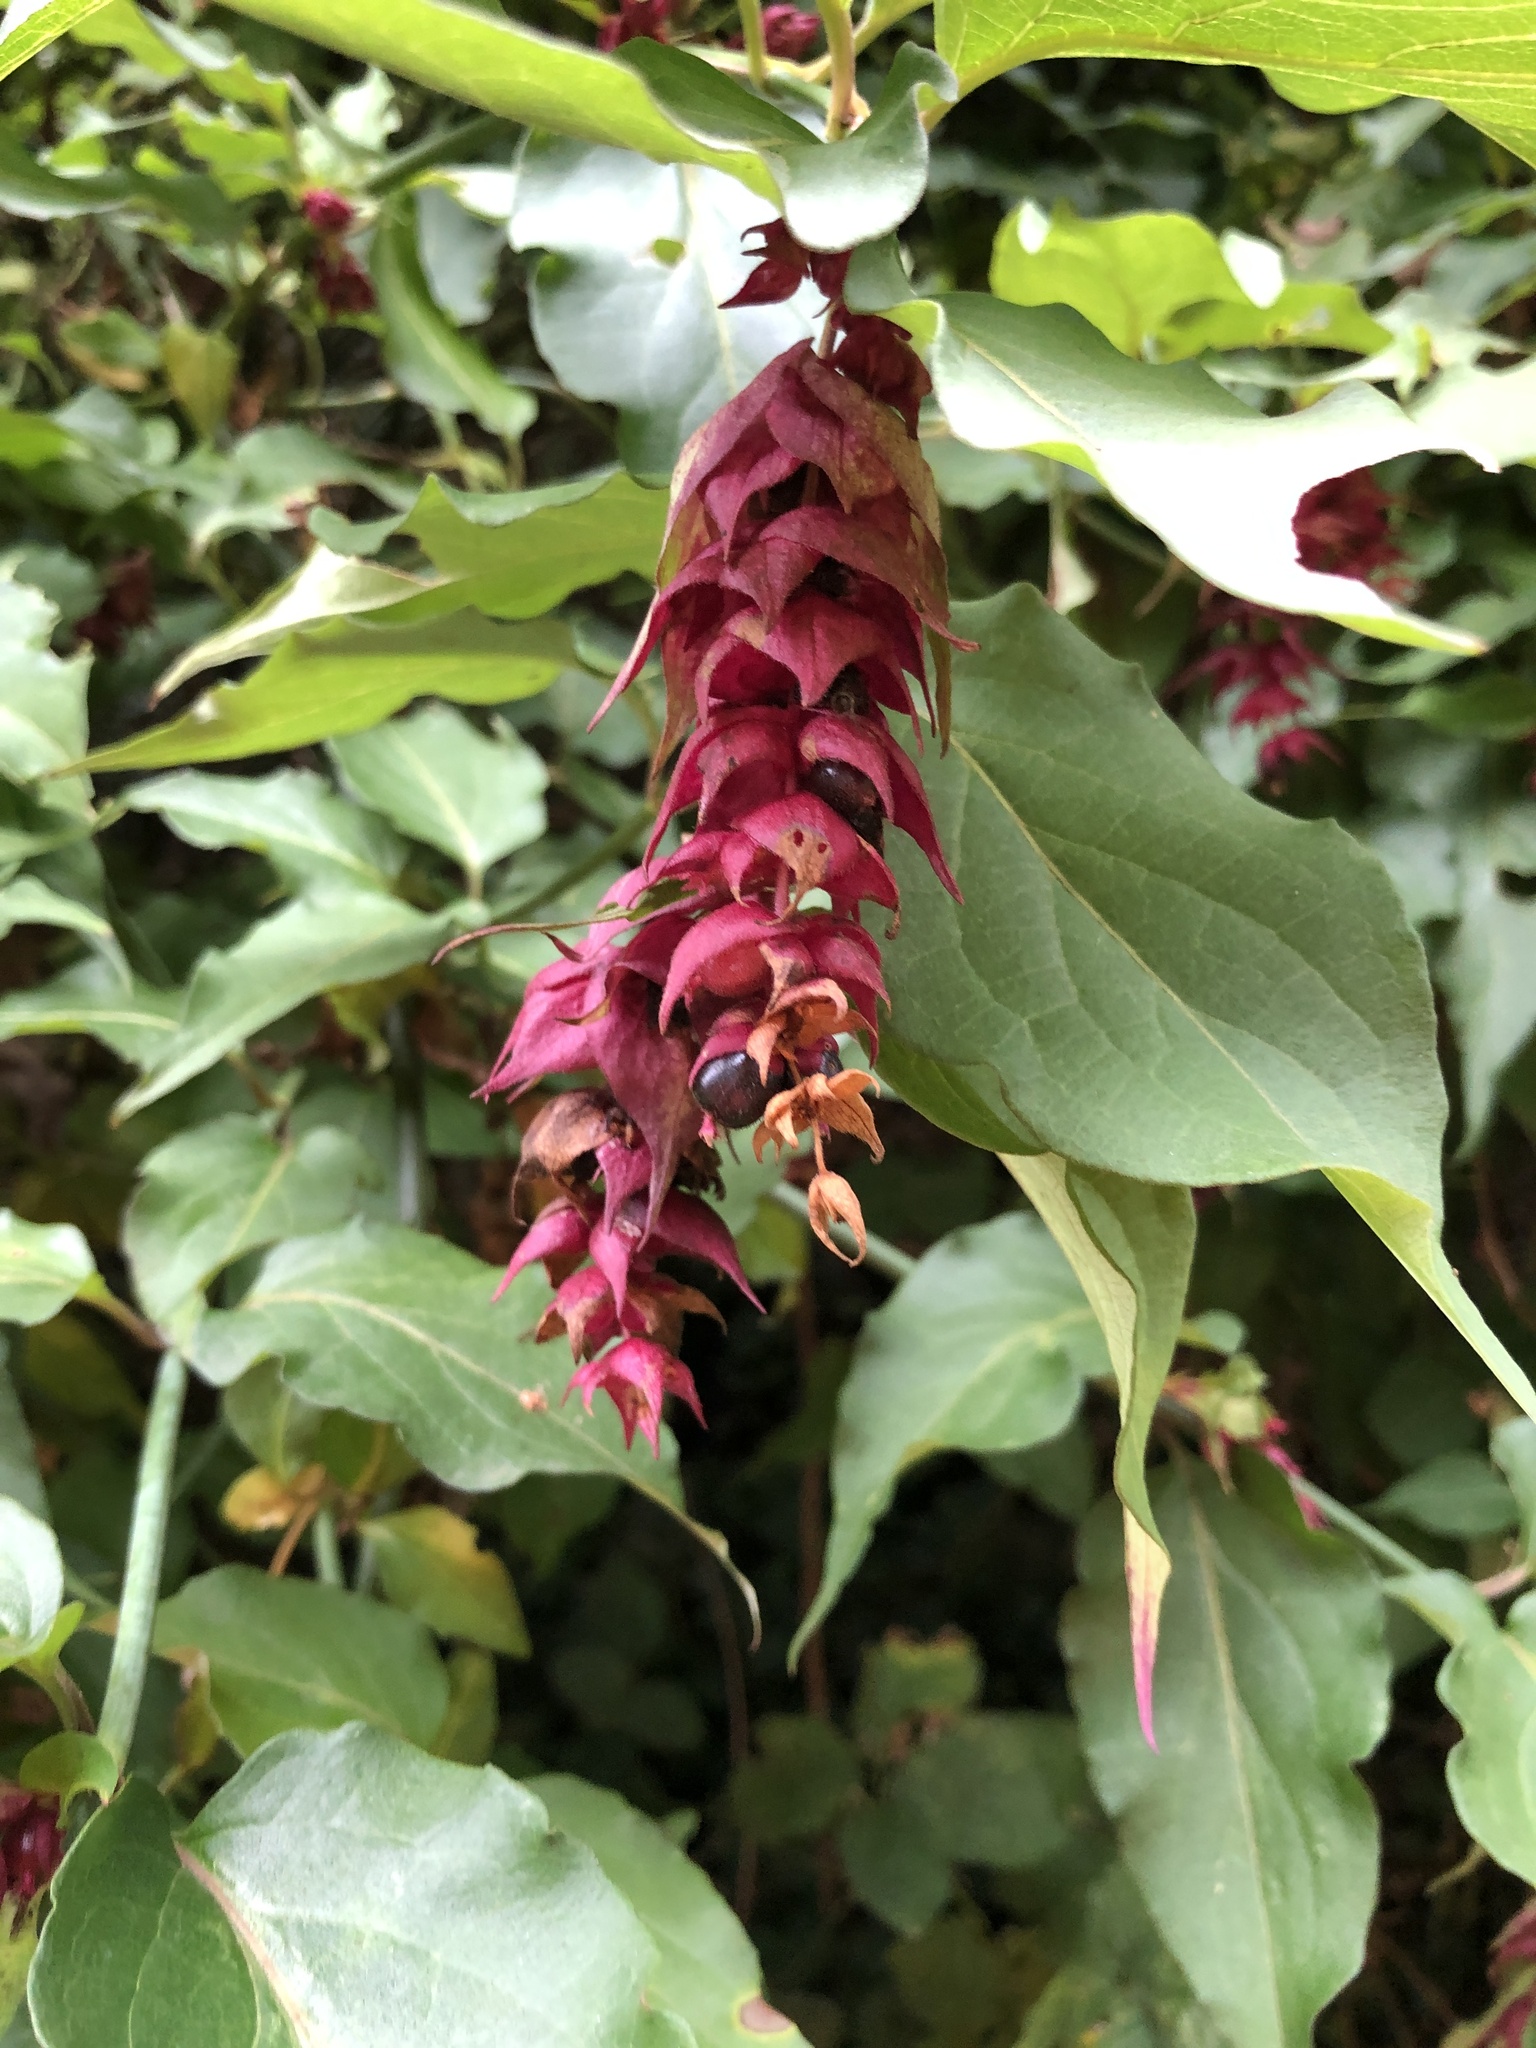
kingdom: Plantae
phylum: Tracheophyta
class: Magnoliopsida
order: Dipsacales
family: Caprifoliaceae
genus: Leycesteria
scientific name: Leycesteria formosa
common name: Himalayan honeysuckle
